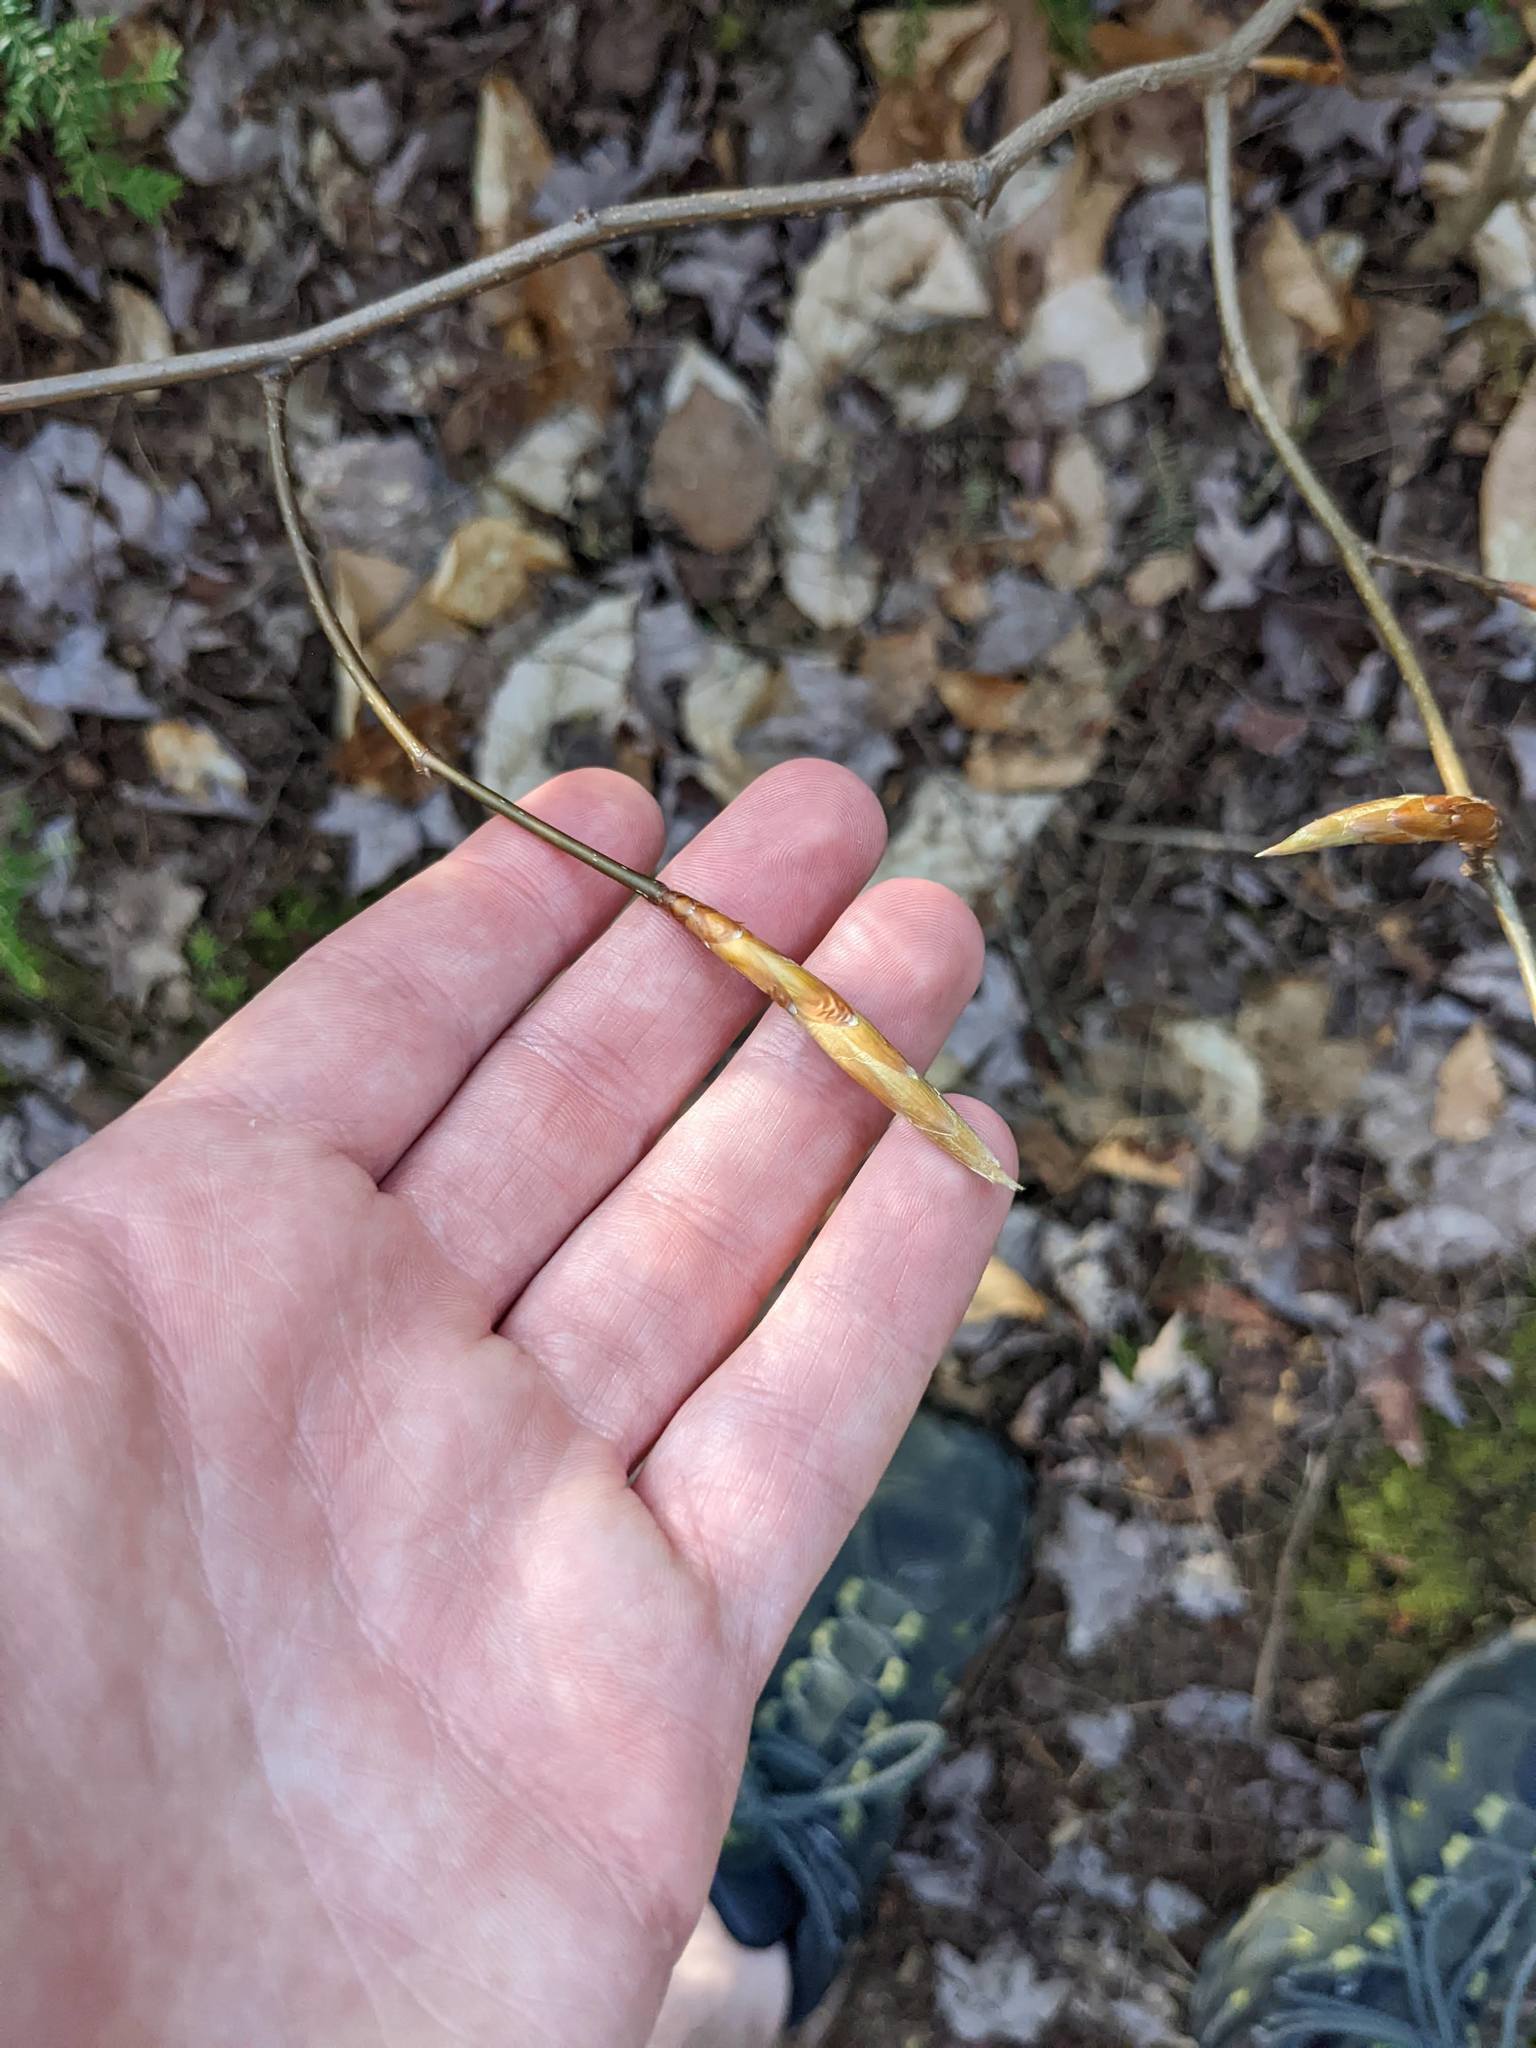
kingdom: Plantae
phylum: Tracheophyta
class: Magnoliopsida
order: Fagales
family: Fagaceae
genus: Fagus
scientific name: Fagus grandifolia
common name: American beech
